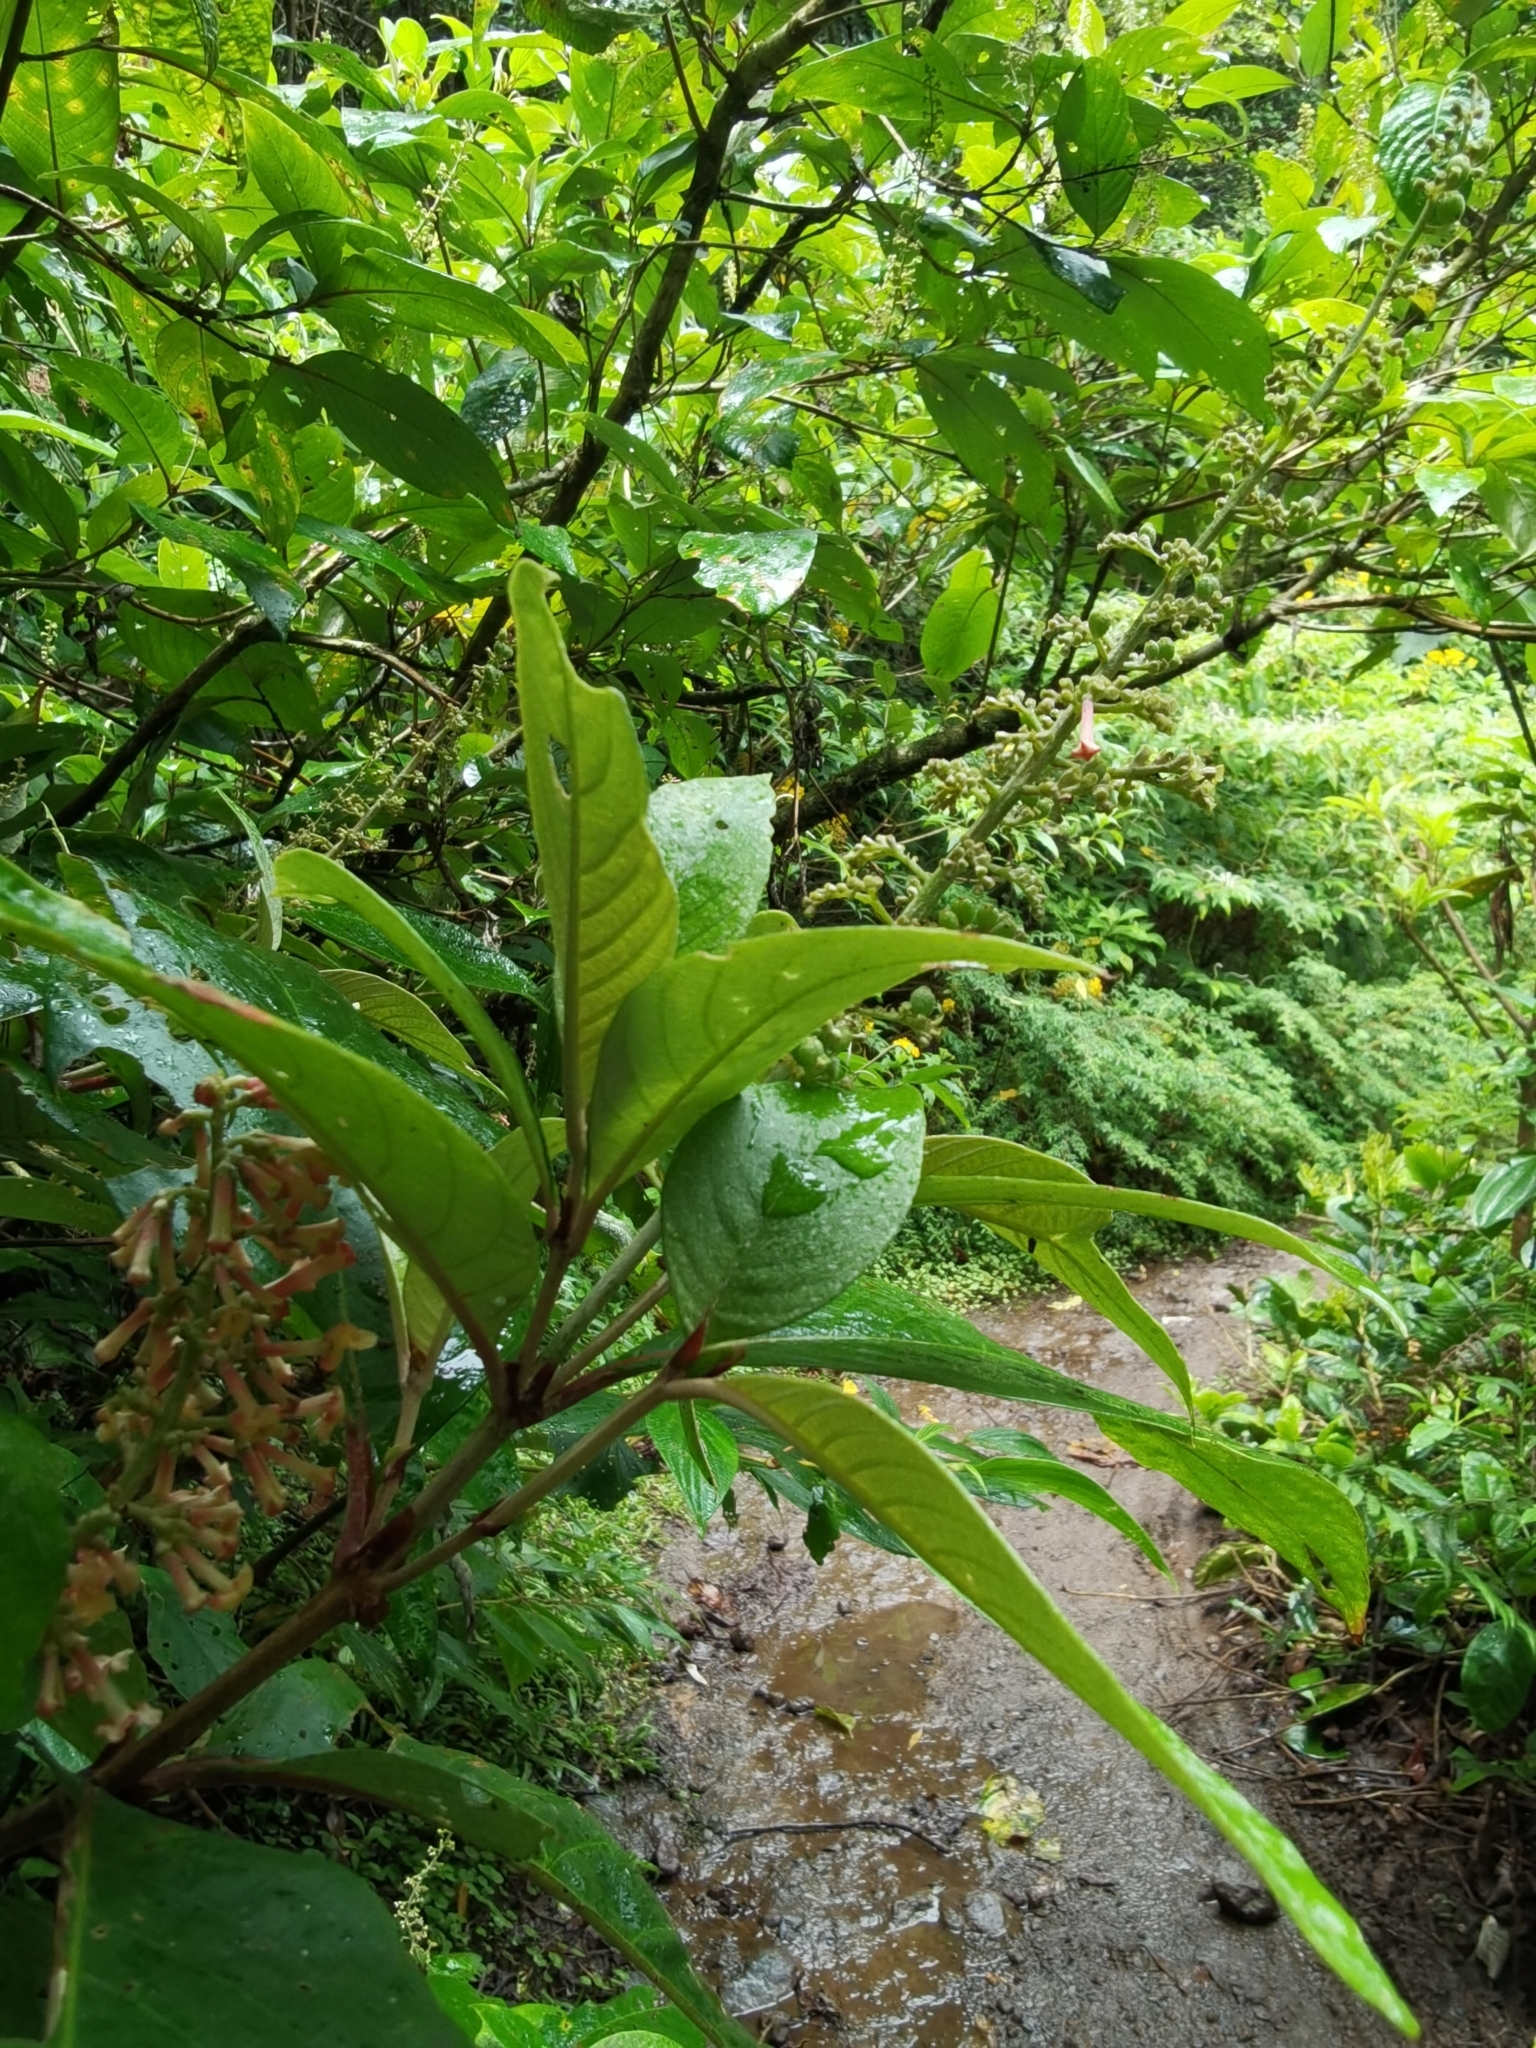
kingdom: Plantae
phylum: Tracheophyta
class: Magnoliopsida
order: Gentianales
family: Rubiaceae
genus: Arachnothryx
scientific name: Arachnothryx buddleioides
